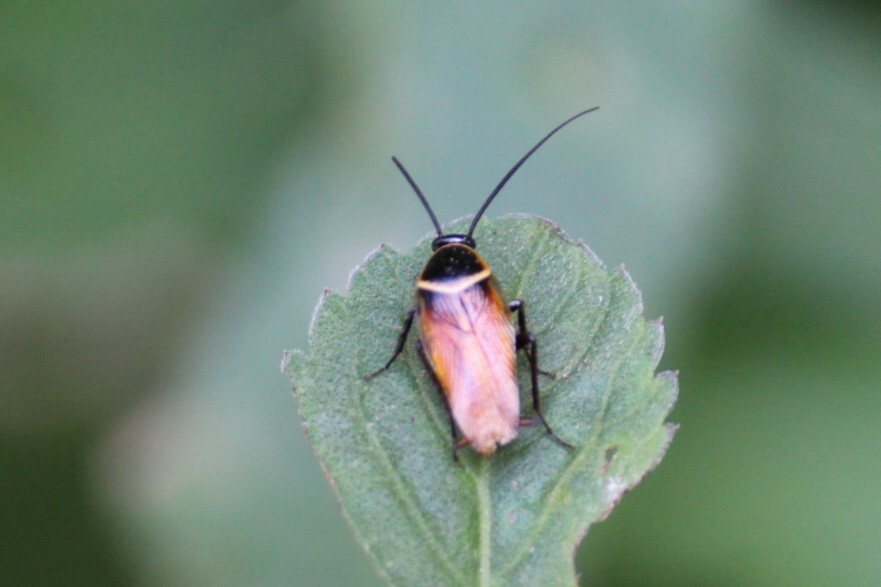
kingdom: Animalia
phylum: Arthropoda
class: Insecta
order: Blattodea
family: Ectobiidae
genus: Pseudomops
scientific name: Pseudomops neglectus
